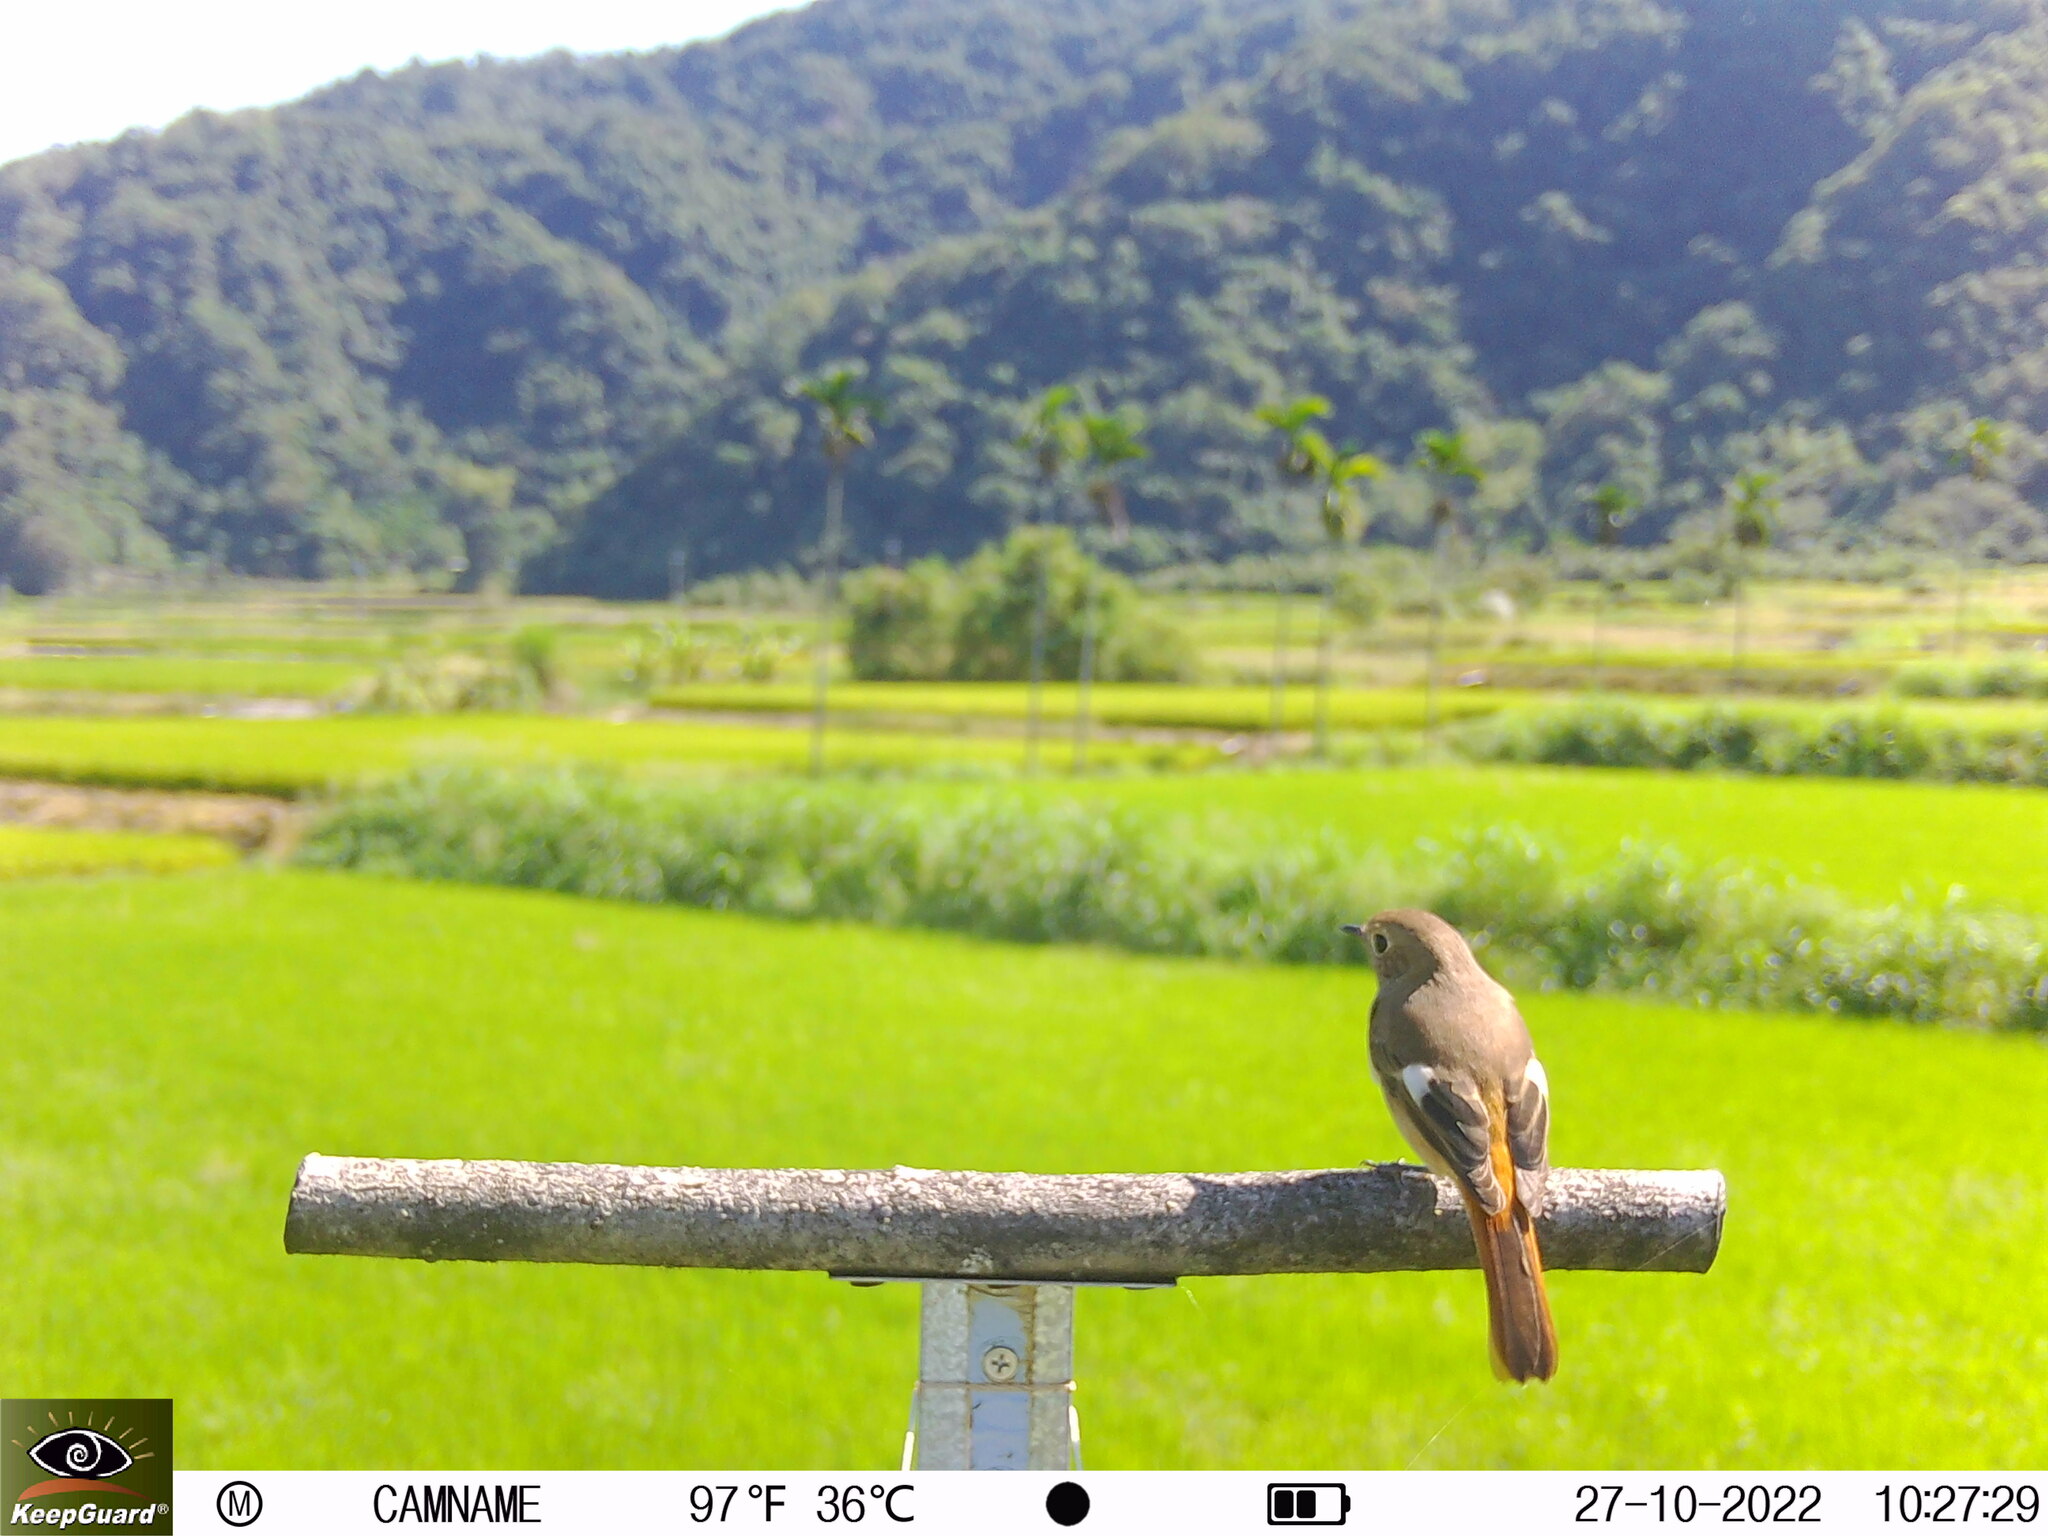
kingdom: Animalia
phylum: Chordata
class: Aves
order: Passeriformes
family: Muscicapidae
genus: Phoenicurus
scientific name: Phoenicurus auroreus
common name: Daurian redstart
